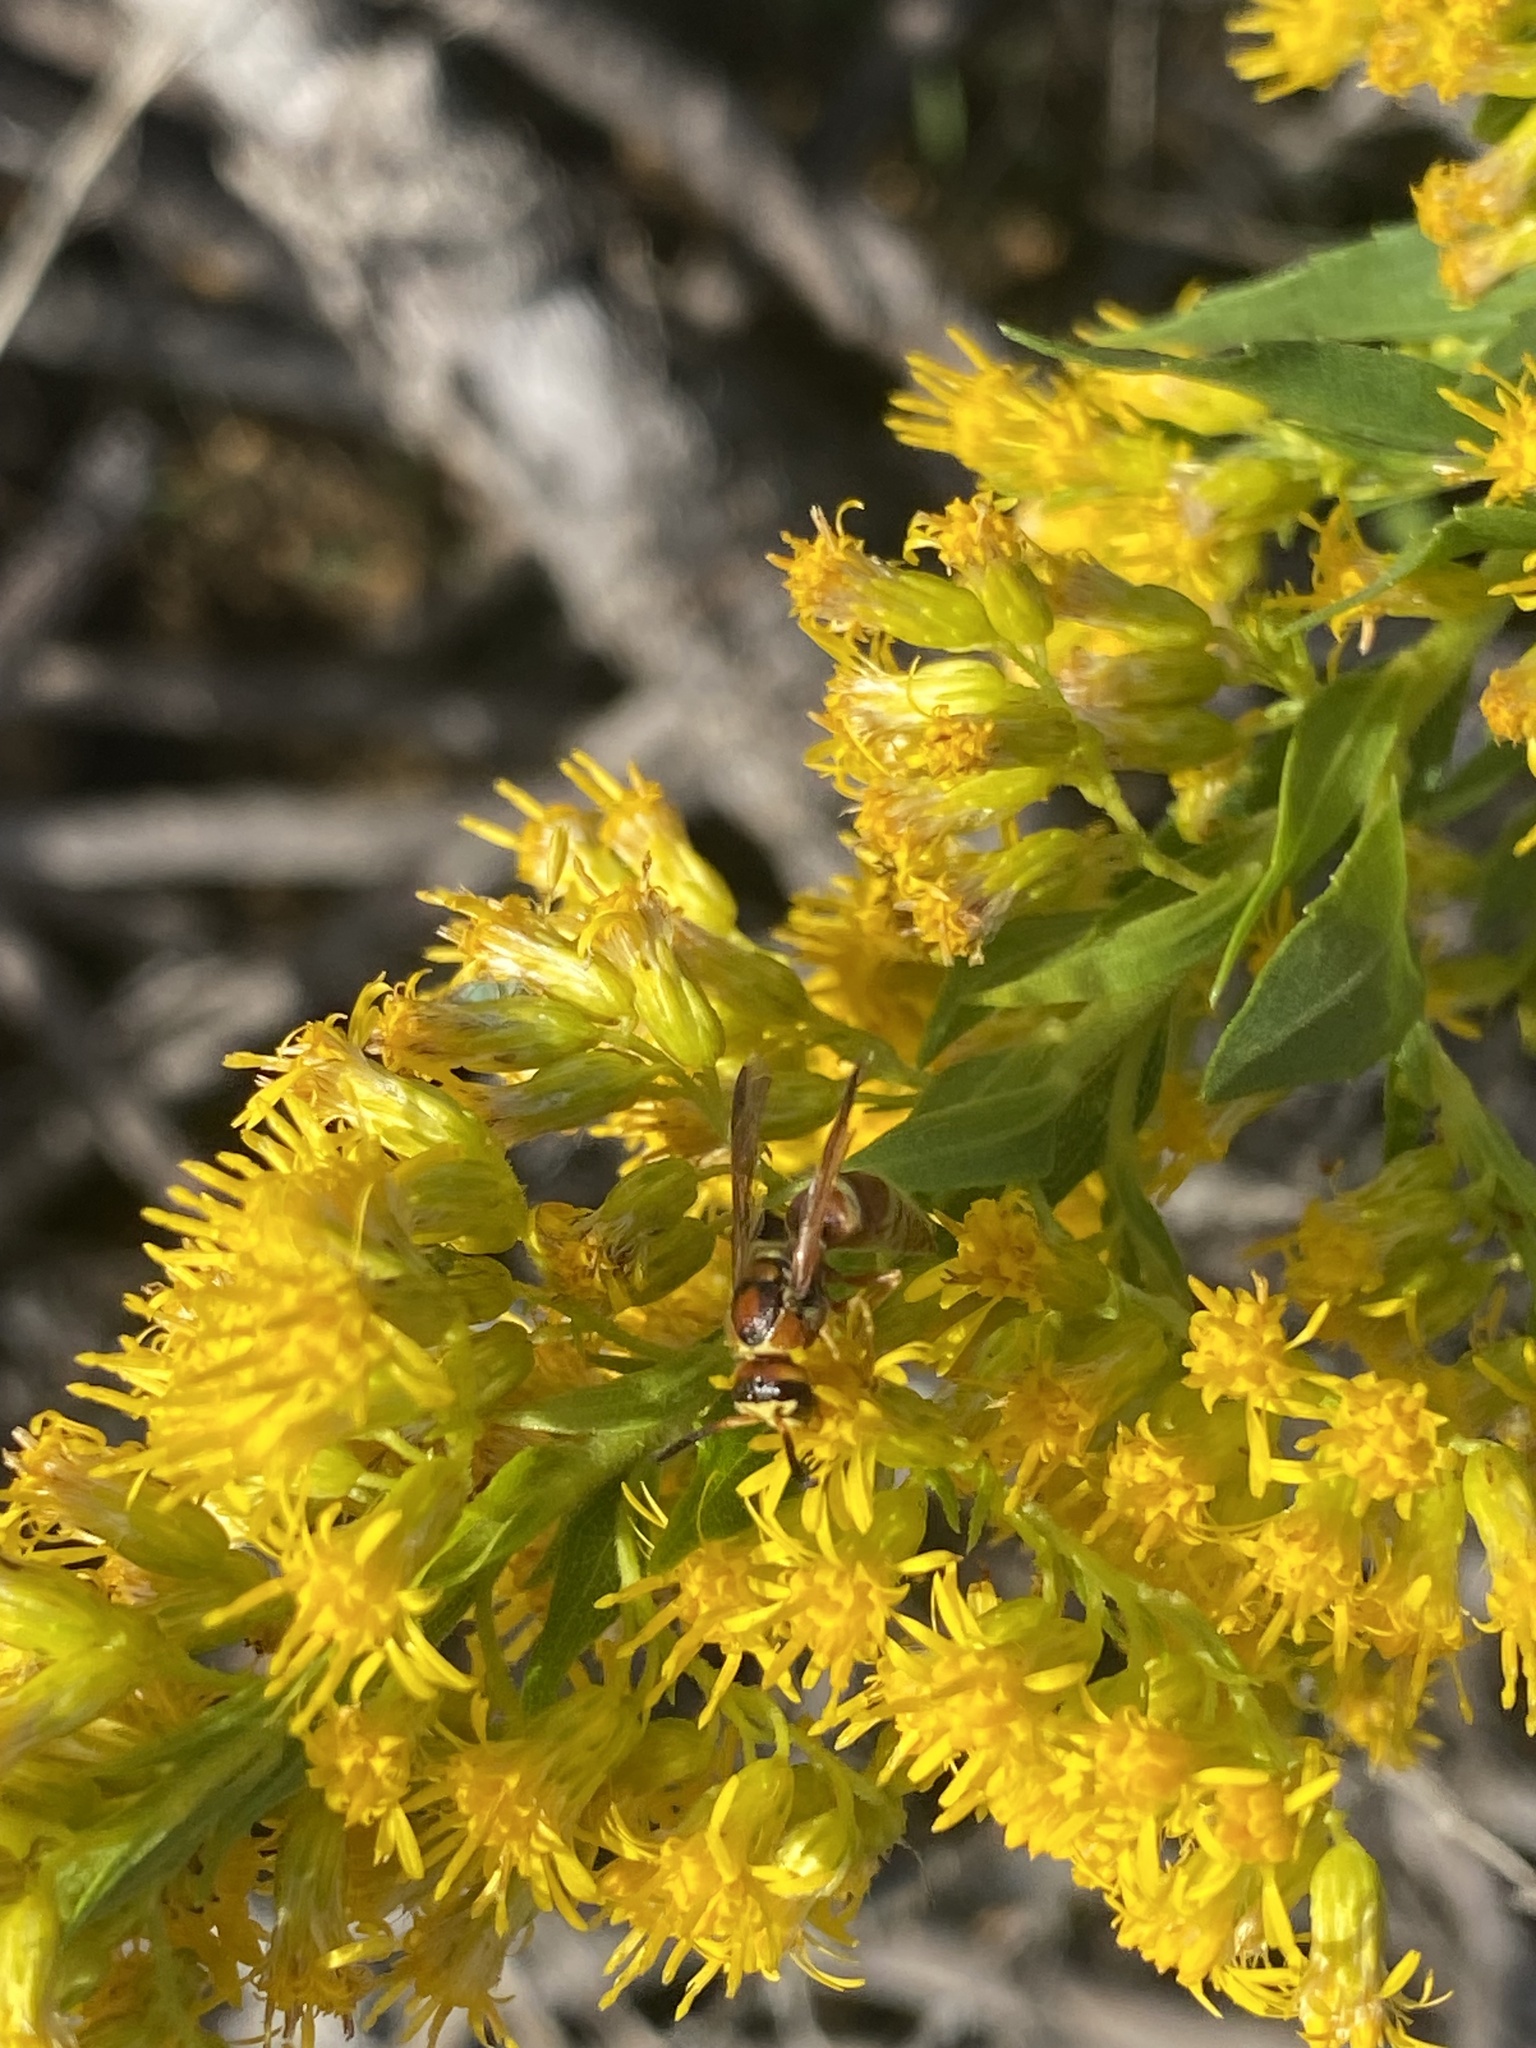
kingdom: Animalia
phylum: Arthropoda
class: Insecta
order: Hymenoptera
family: Eumenidae
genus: Euodynerus
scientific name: Euodynerus pratensis
